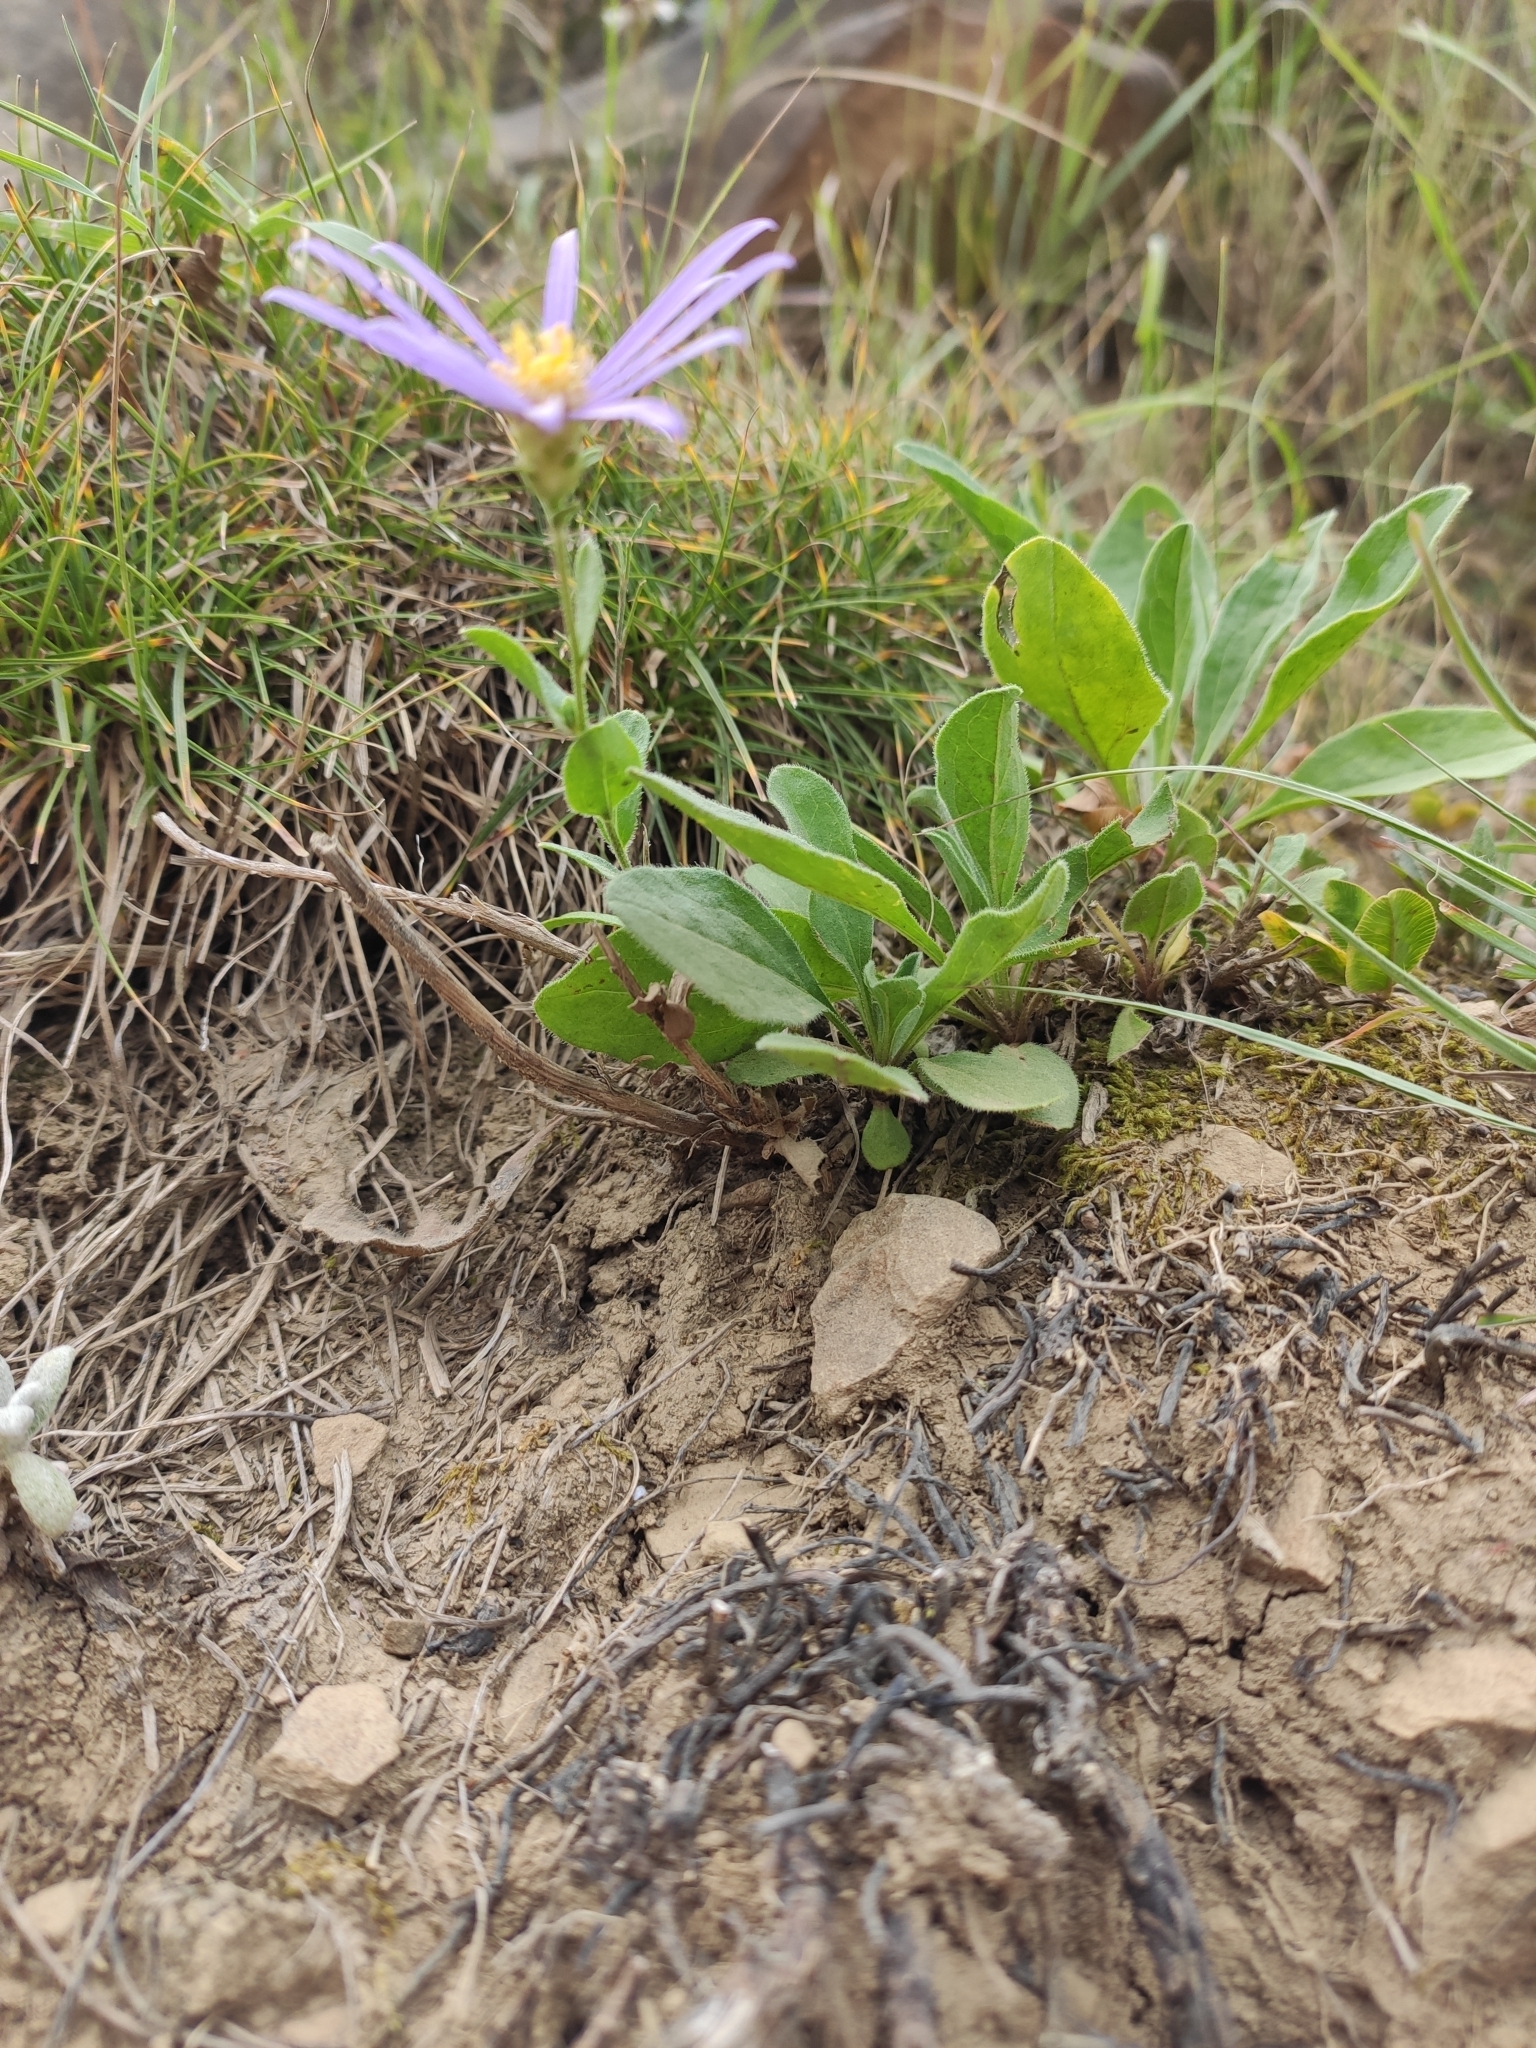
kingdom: Plantae
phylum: Tracheophyta
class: Magnoliopsida
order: Asterales
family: Asteraceae
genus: Aster
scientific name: Aster amellus
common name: European michaelmas daisy
